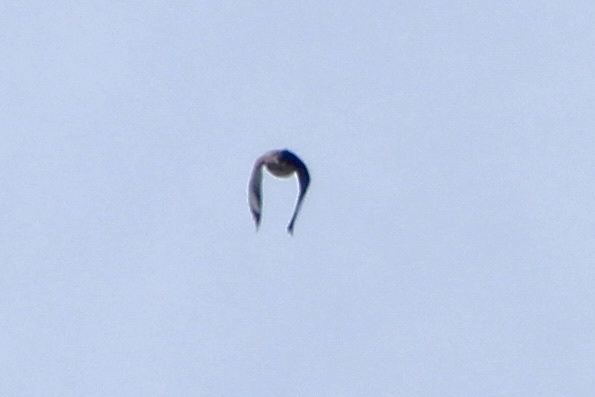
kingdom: Animalia
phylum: Chordata
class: Aves
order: Coraciiformes
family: Alcedinidae
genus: Megaceryle
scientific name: Megaceryle alcyon
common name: Belted kingfisher
